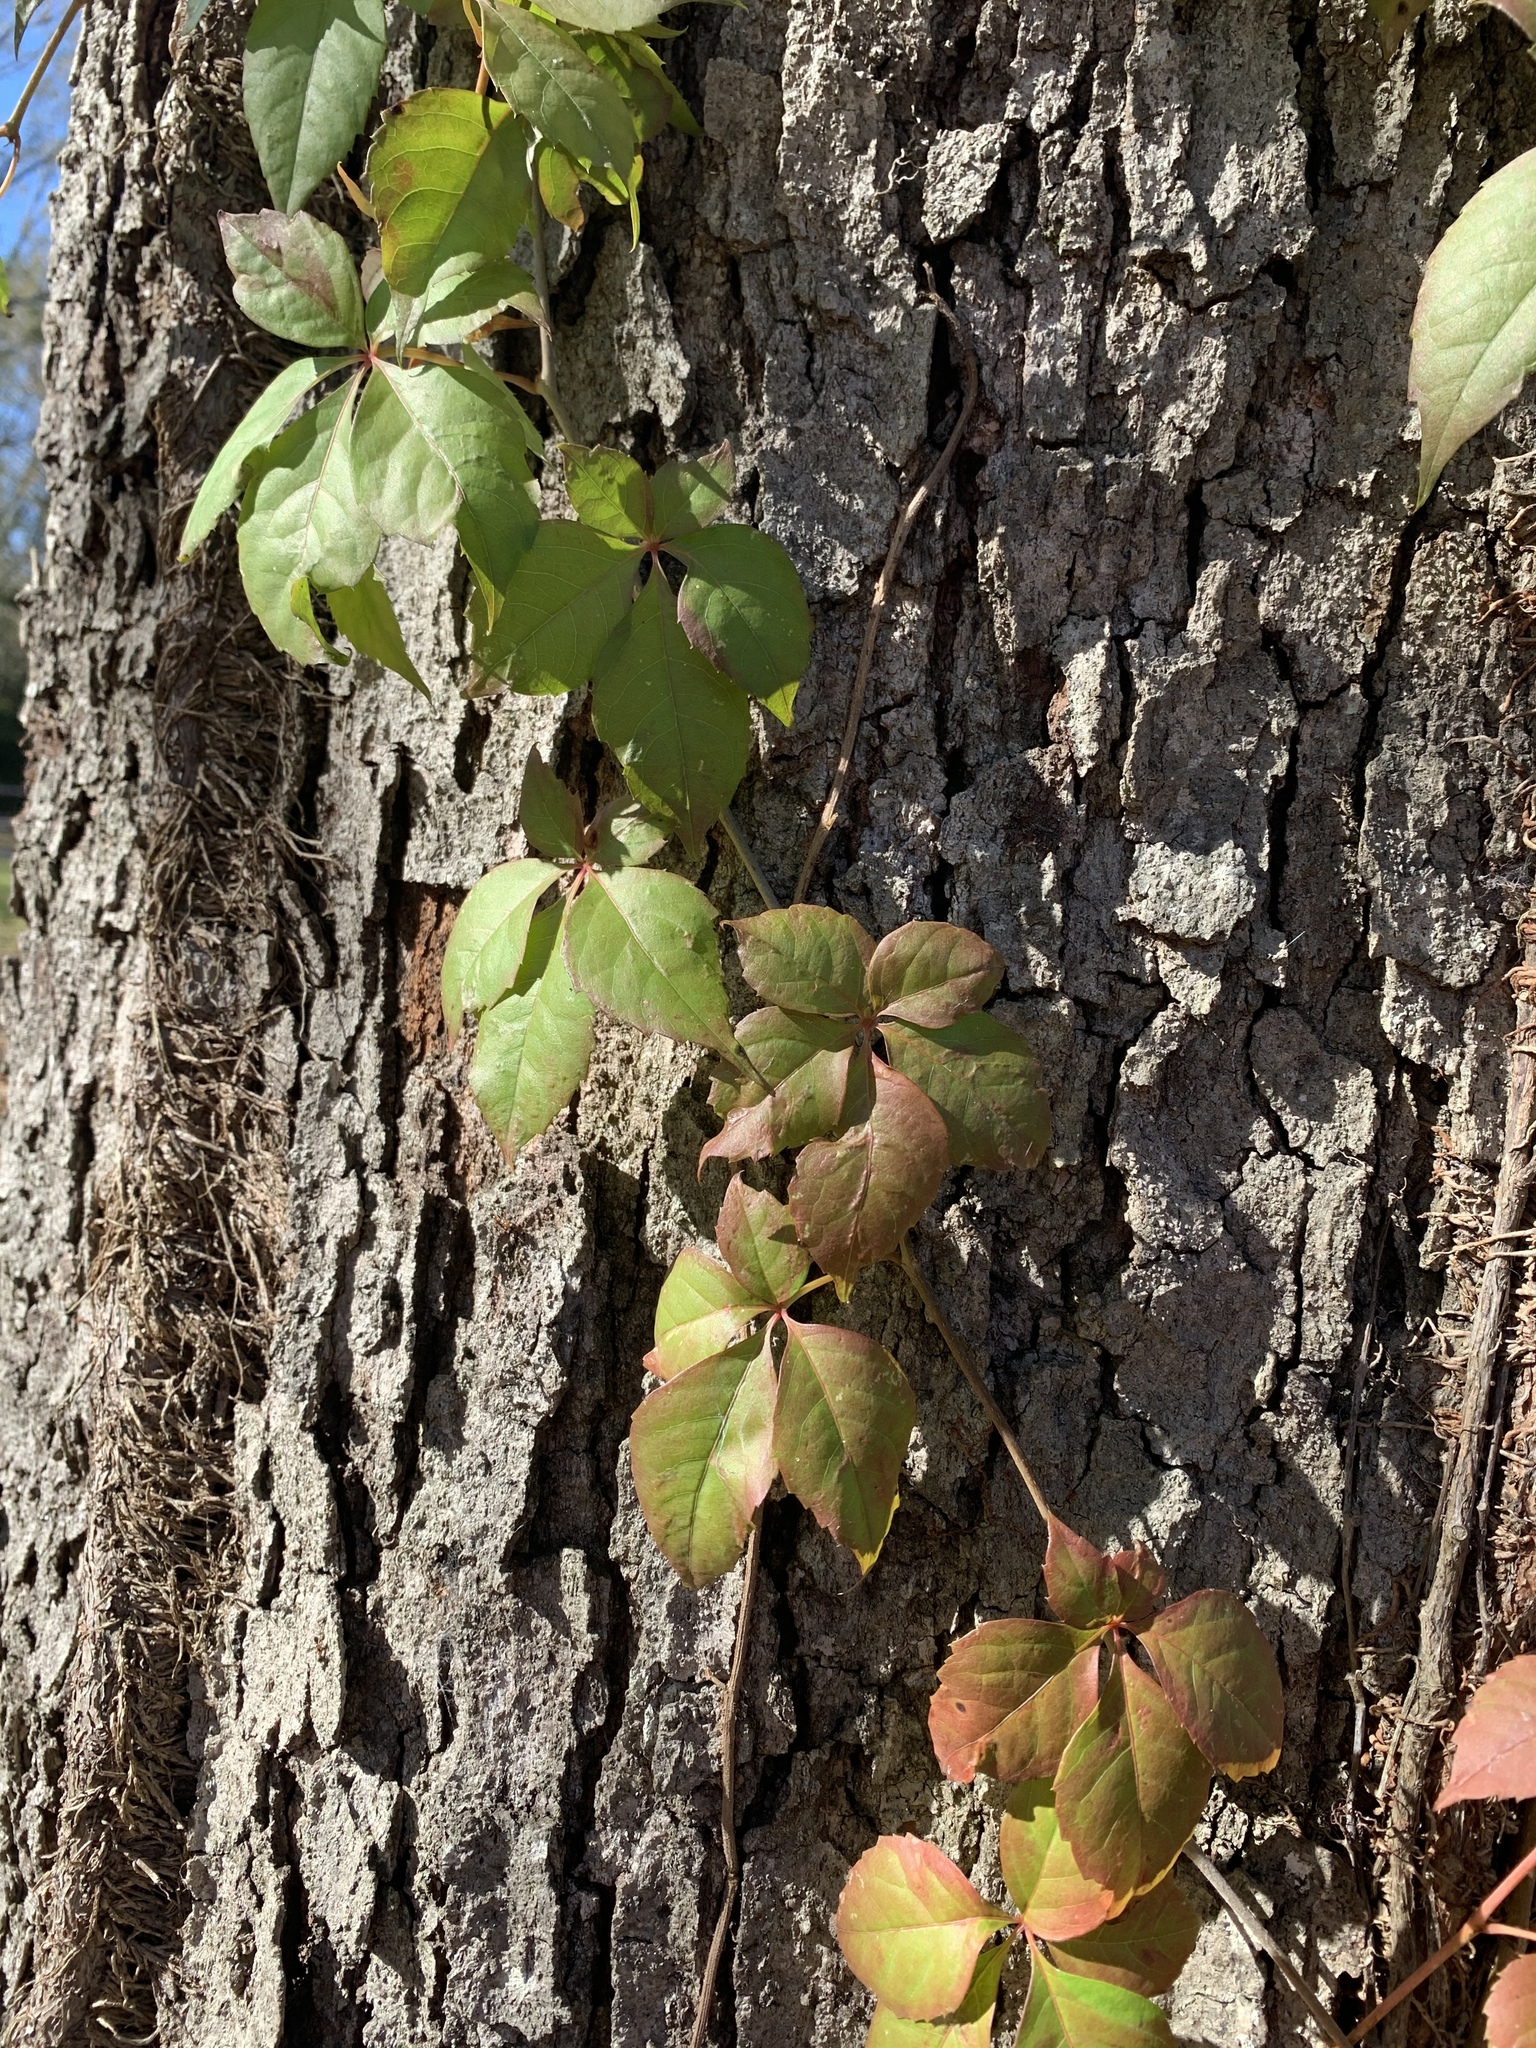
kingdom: Plantae
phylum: Tracheophyta
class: Magnoliopsida
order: Vitales
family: Vitaceae
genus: Parthenocissus
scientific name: Parthenocissus quinquefolia
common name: Virginia-creeper
